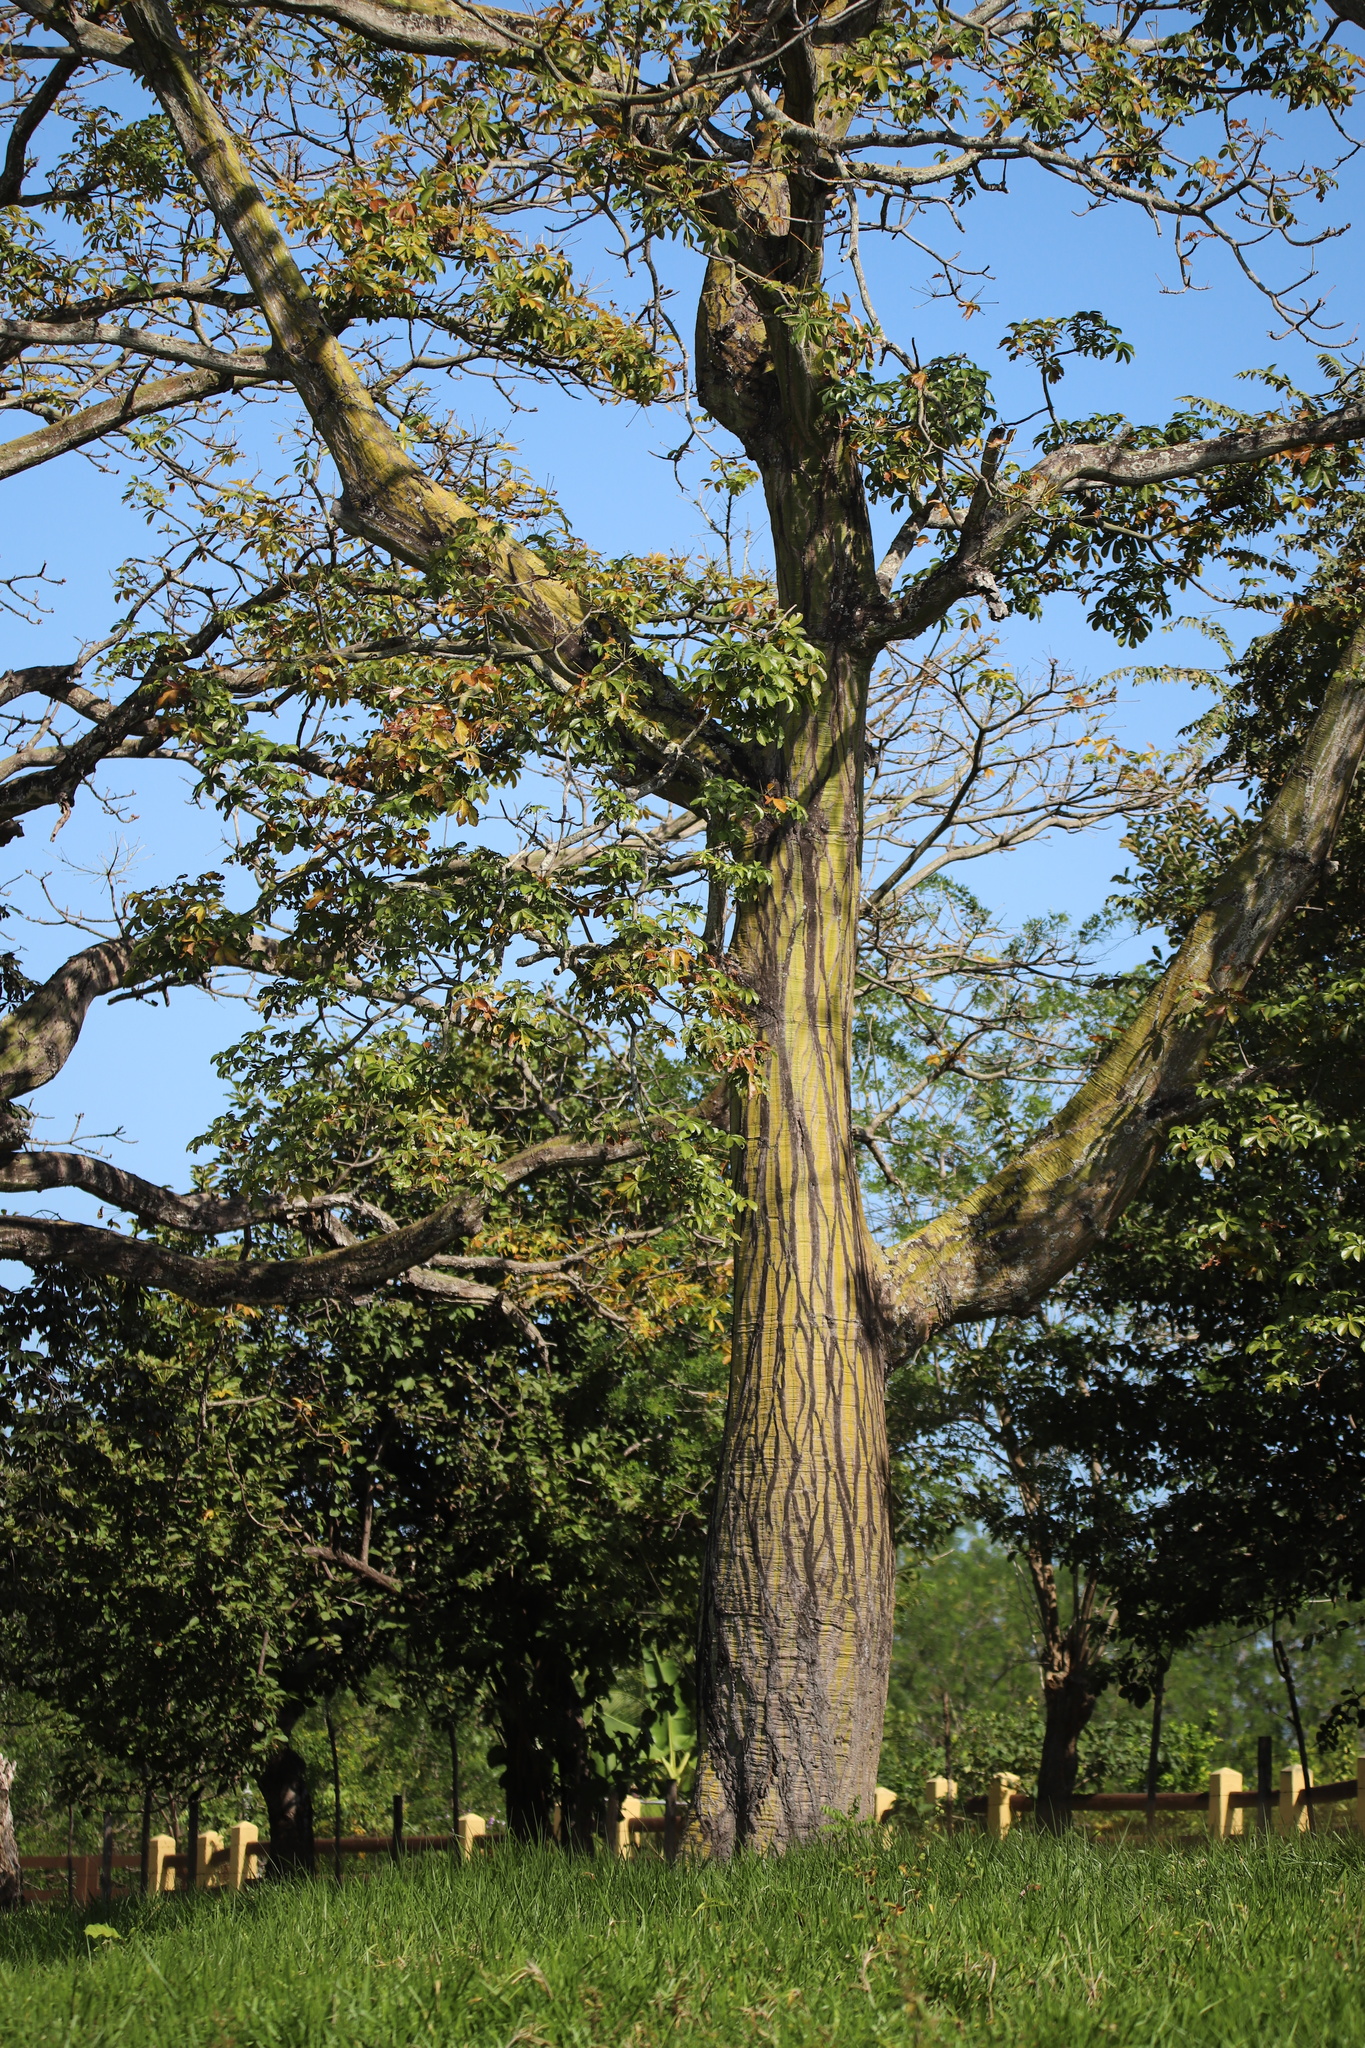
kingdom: Plantae
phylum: Tracheophyta
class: Magnoliopsida
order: Malvales
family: Malvaceae
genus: Pseudobombax
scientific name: Pseudobombax septenatum
